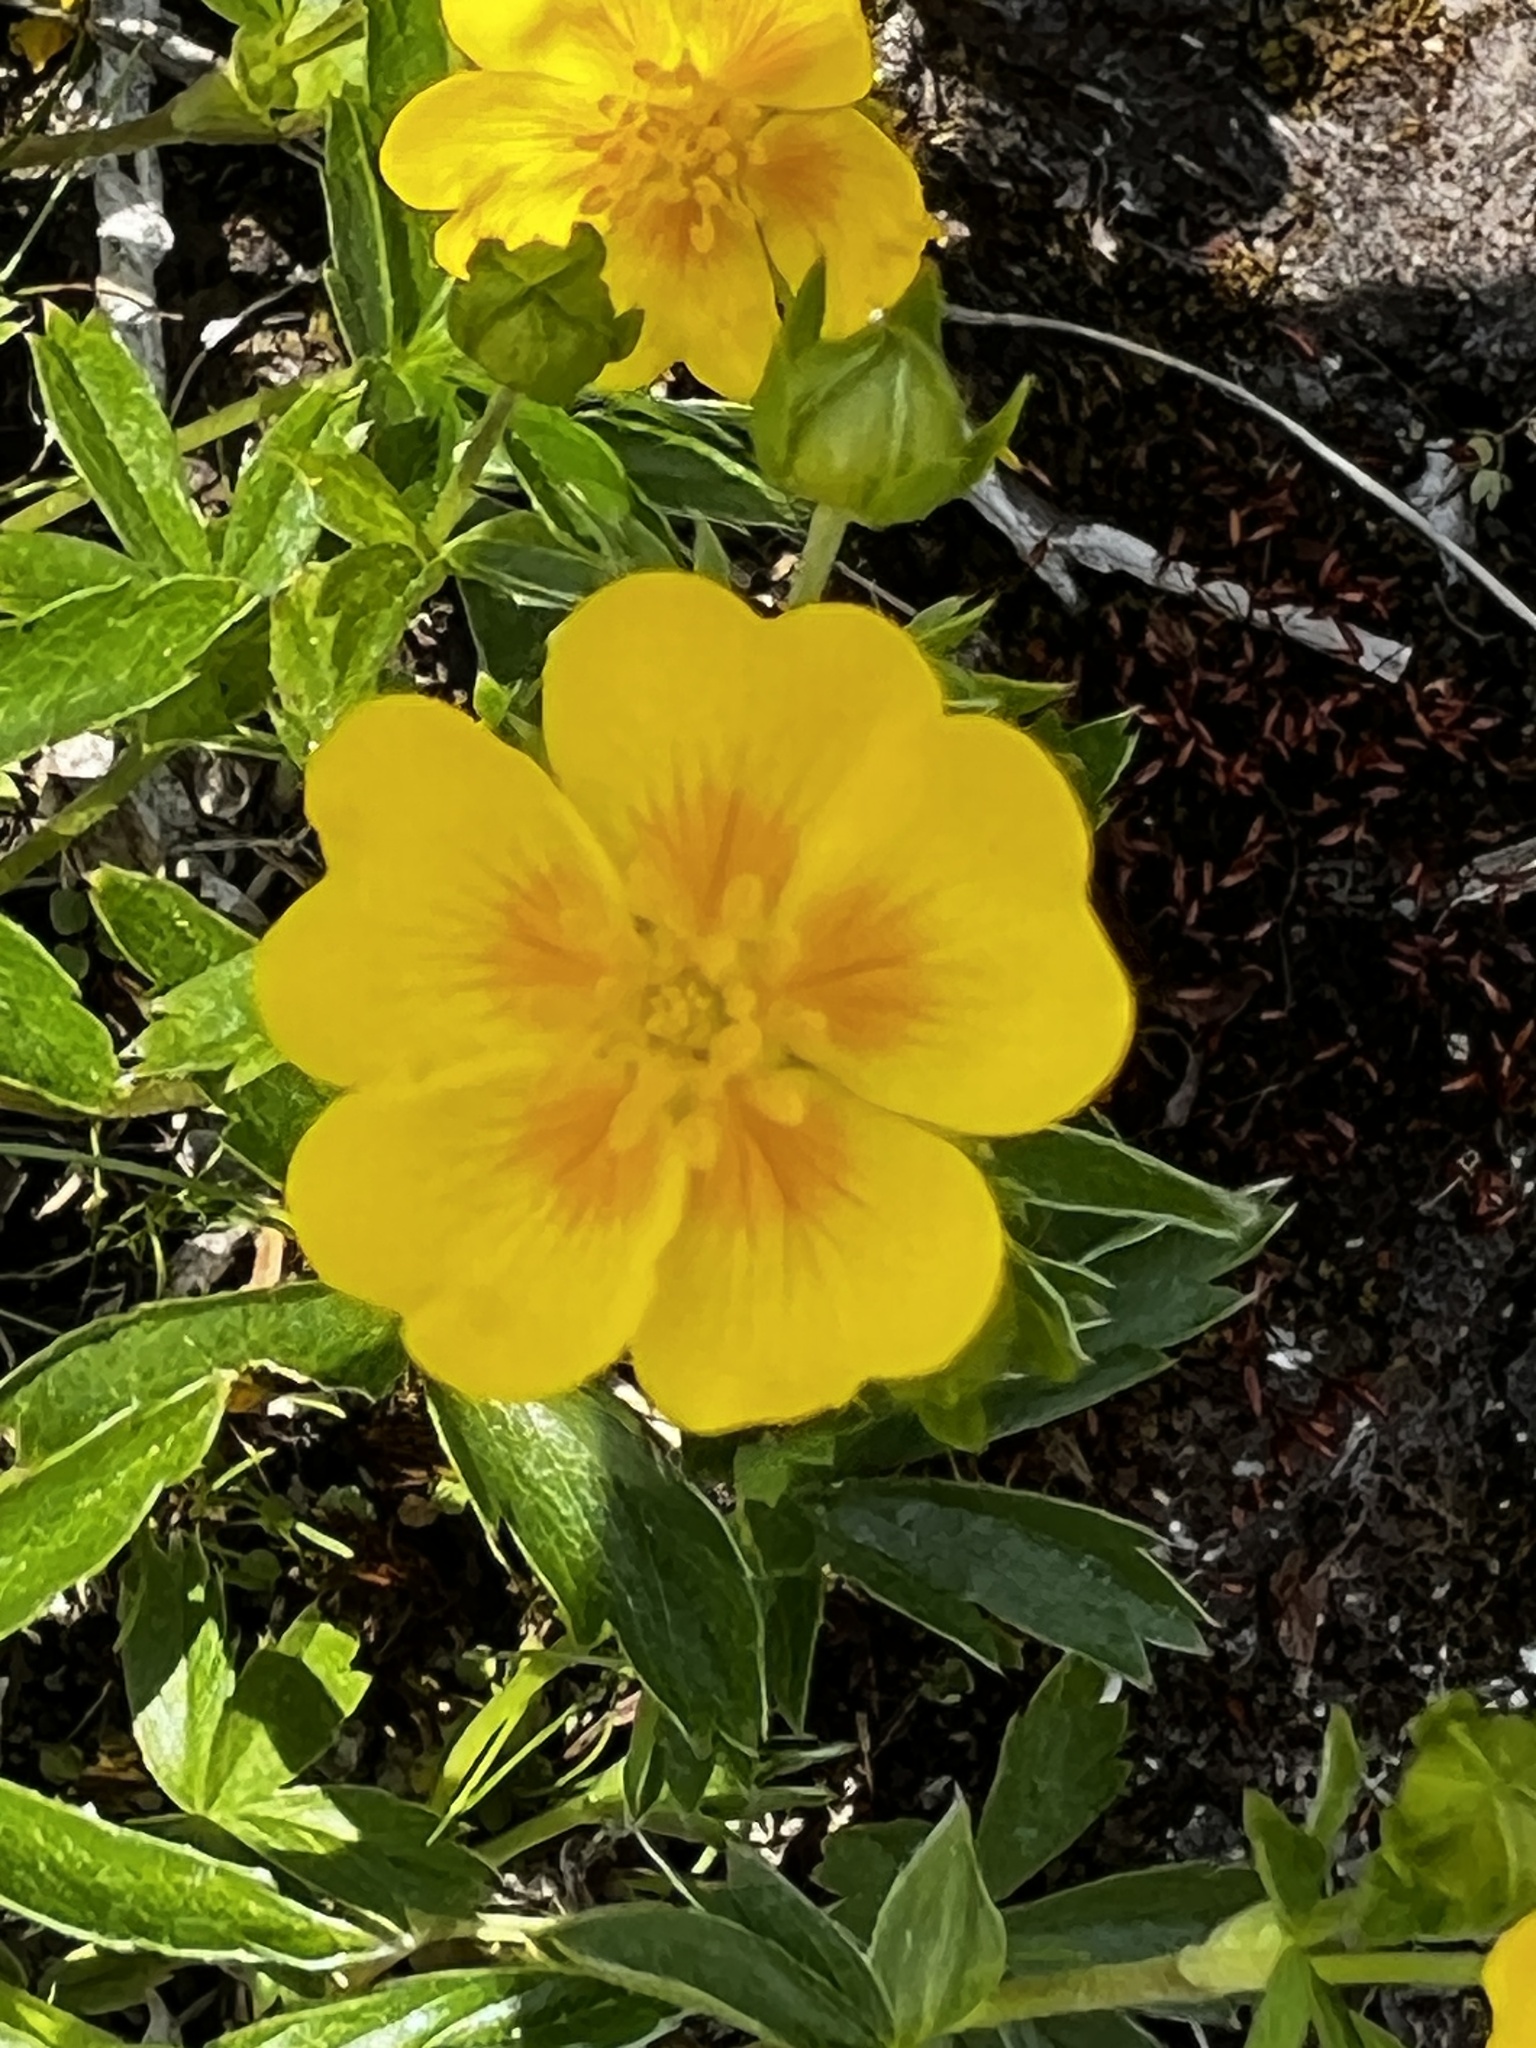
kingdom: Plantae
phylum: Tracheophyta
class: Magnoliopsida
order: Rosales
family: Rosaceae
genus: Potentilla
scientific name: Potentilla aurea
